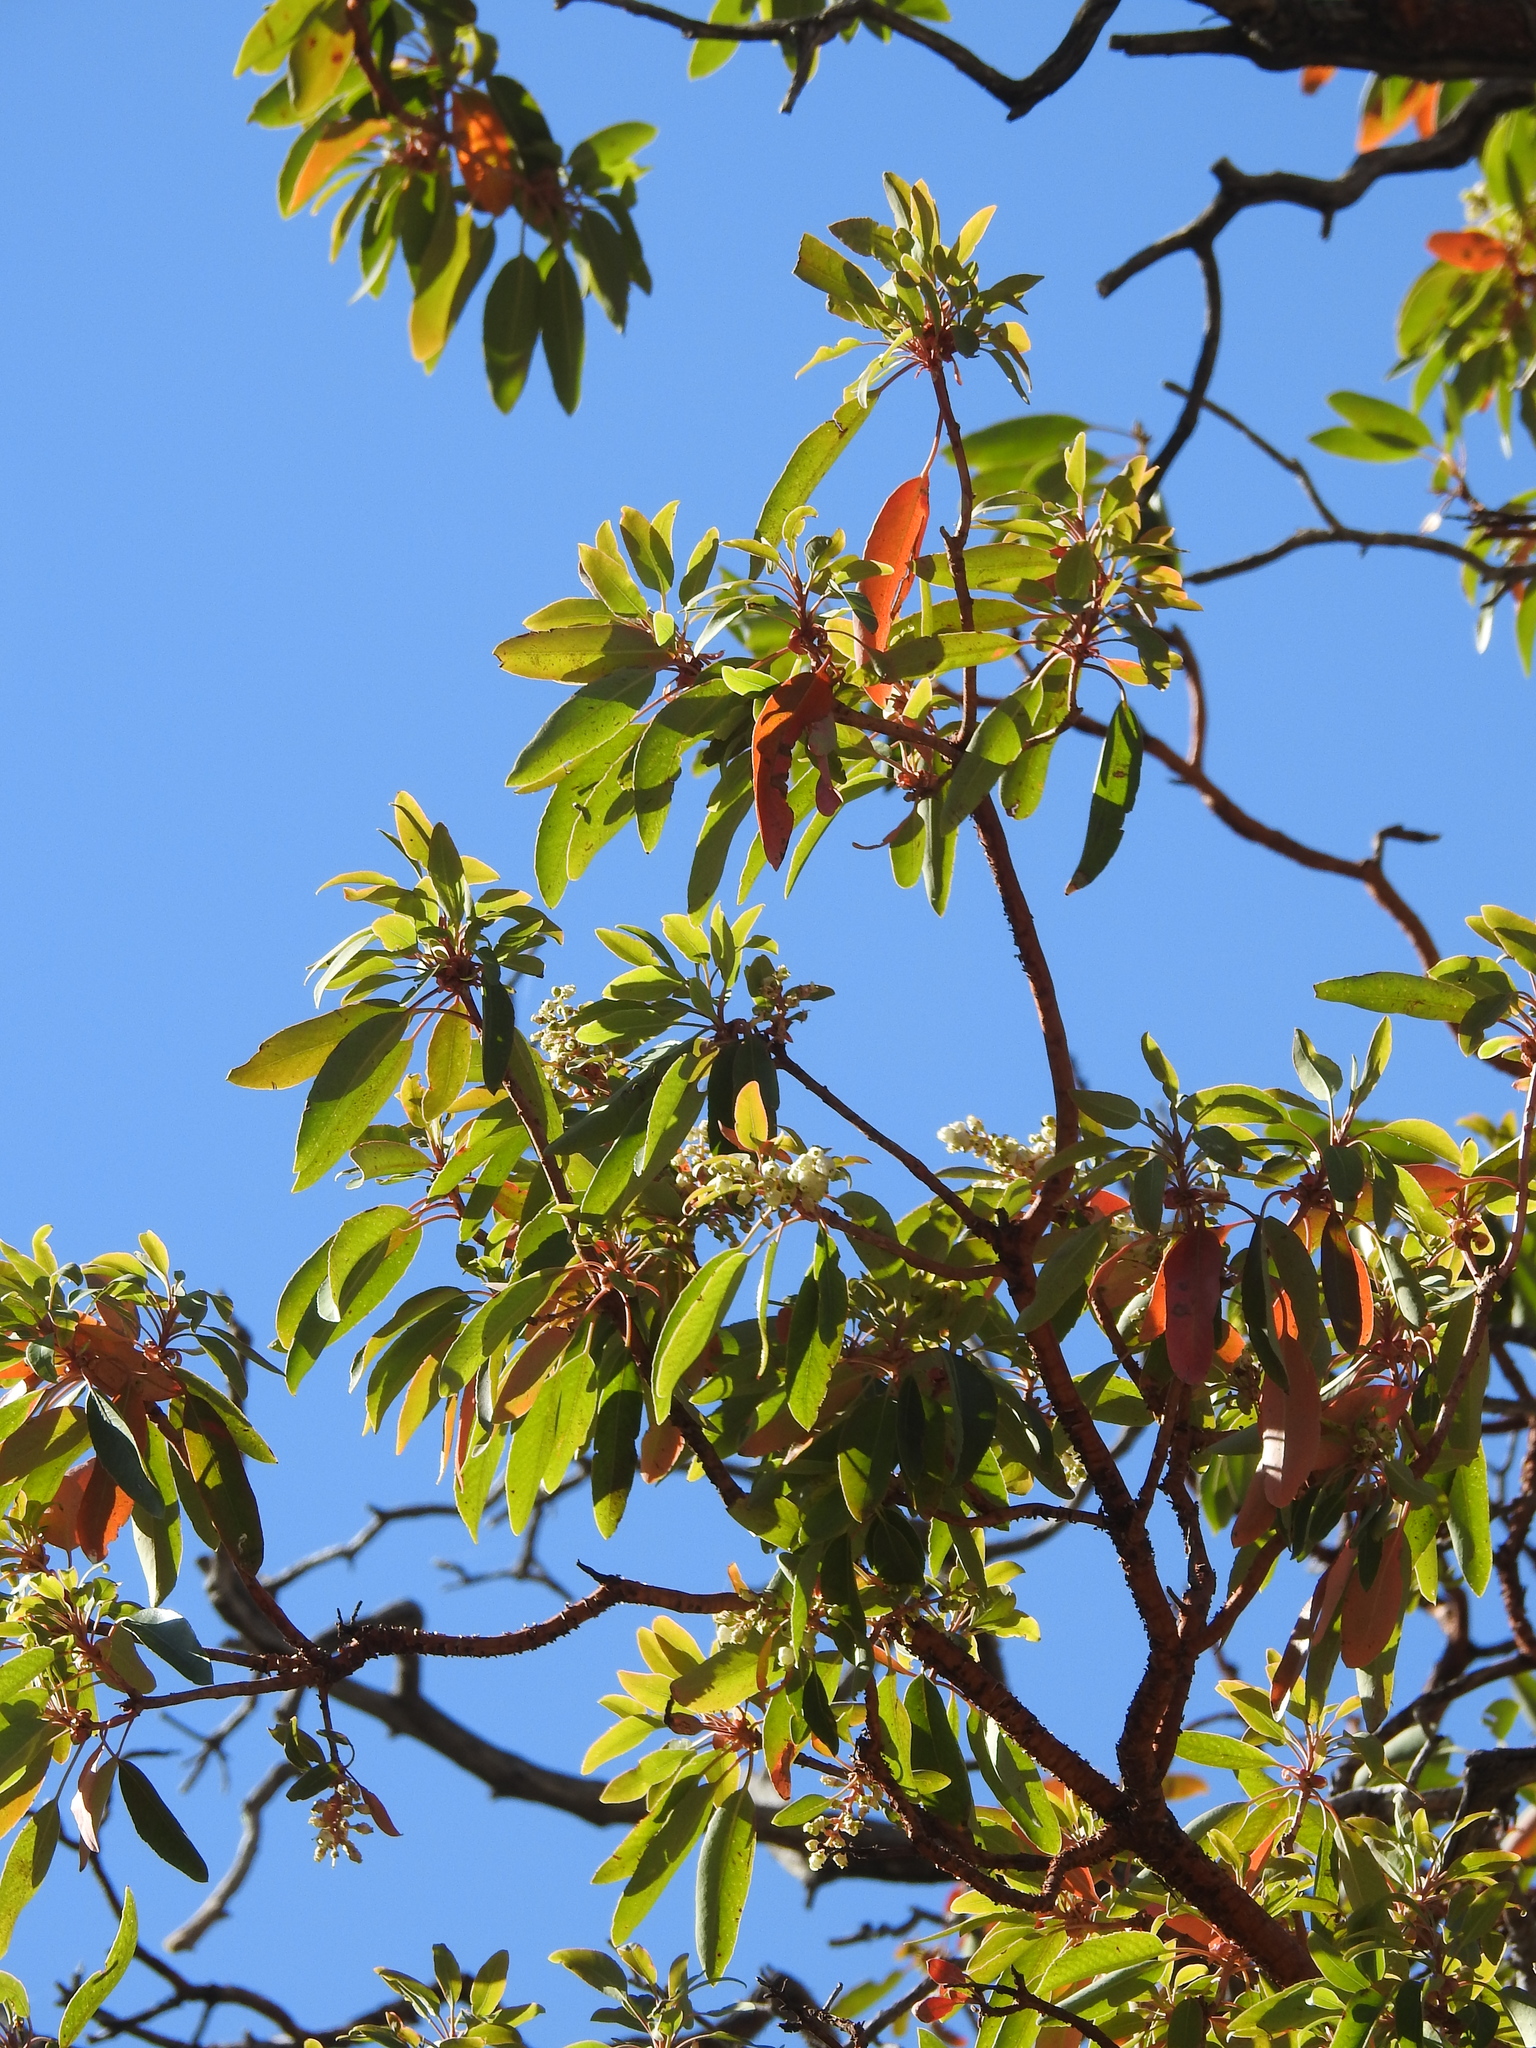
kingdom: Plantae
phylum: Tracheophyta
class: Magnoliopsida
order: Ericales
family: Ericaceae
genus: Arbutus
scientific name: Arbutus arizonica
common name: Arizona madrone
